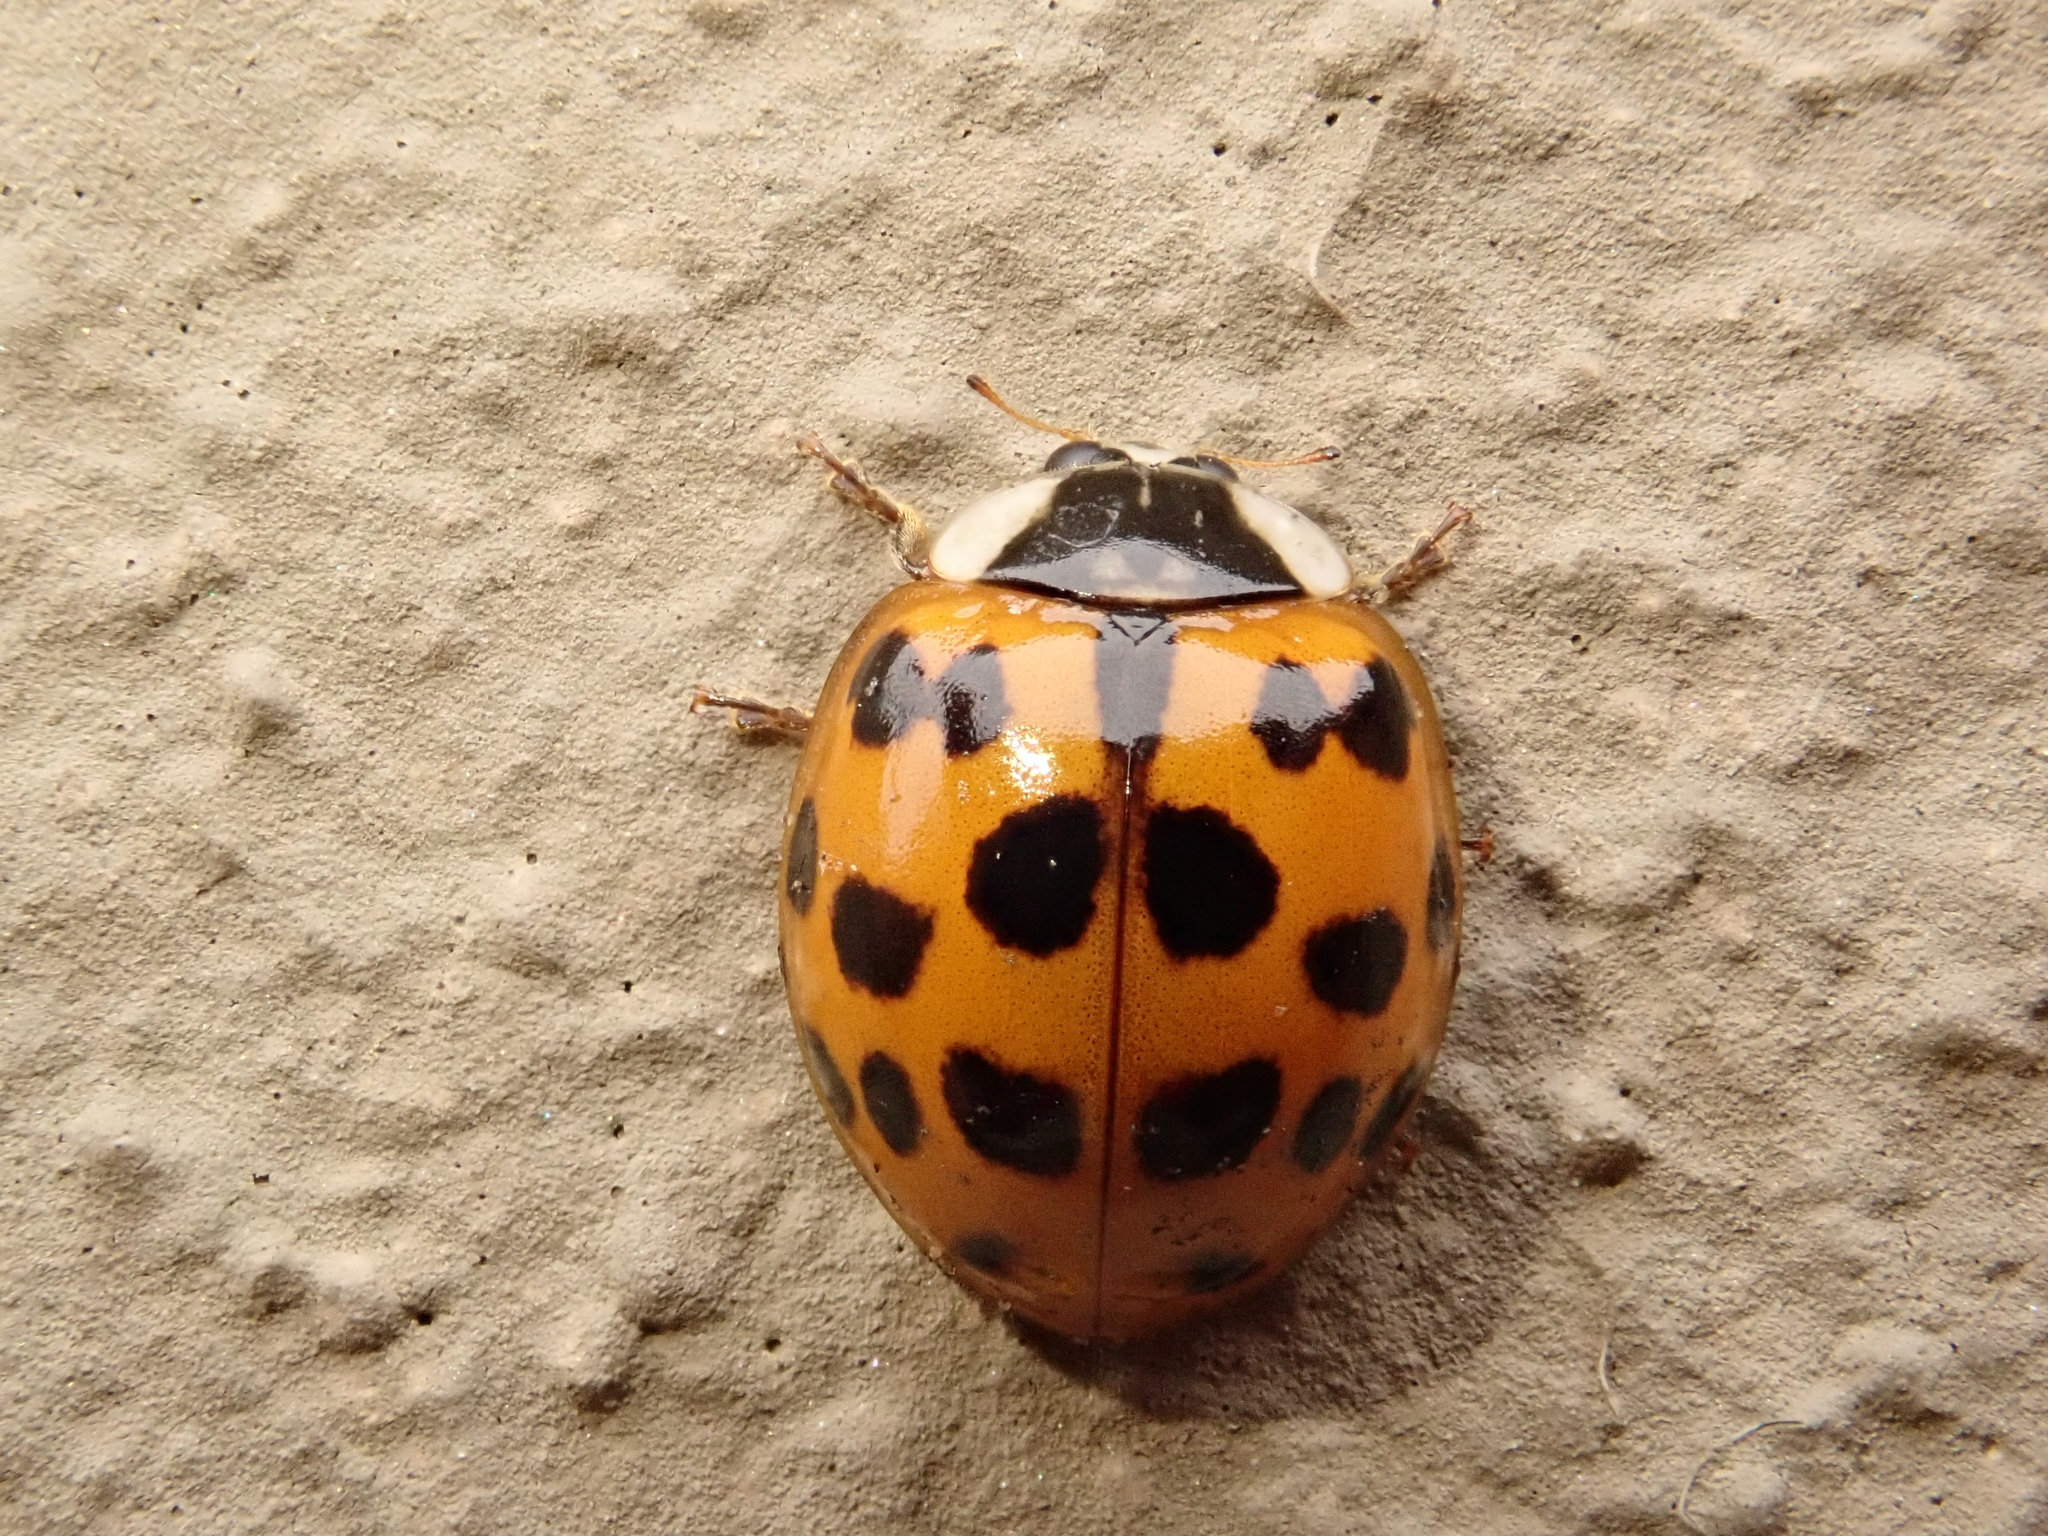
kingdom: Animalia
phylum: Arthropoda
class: Insecta
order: Coleoptera
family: Coccinellidae
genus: Harmonia
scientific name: Harmonia axyridis
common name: Harlequin ladybird
